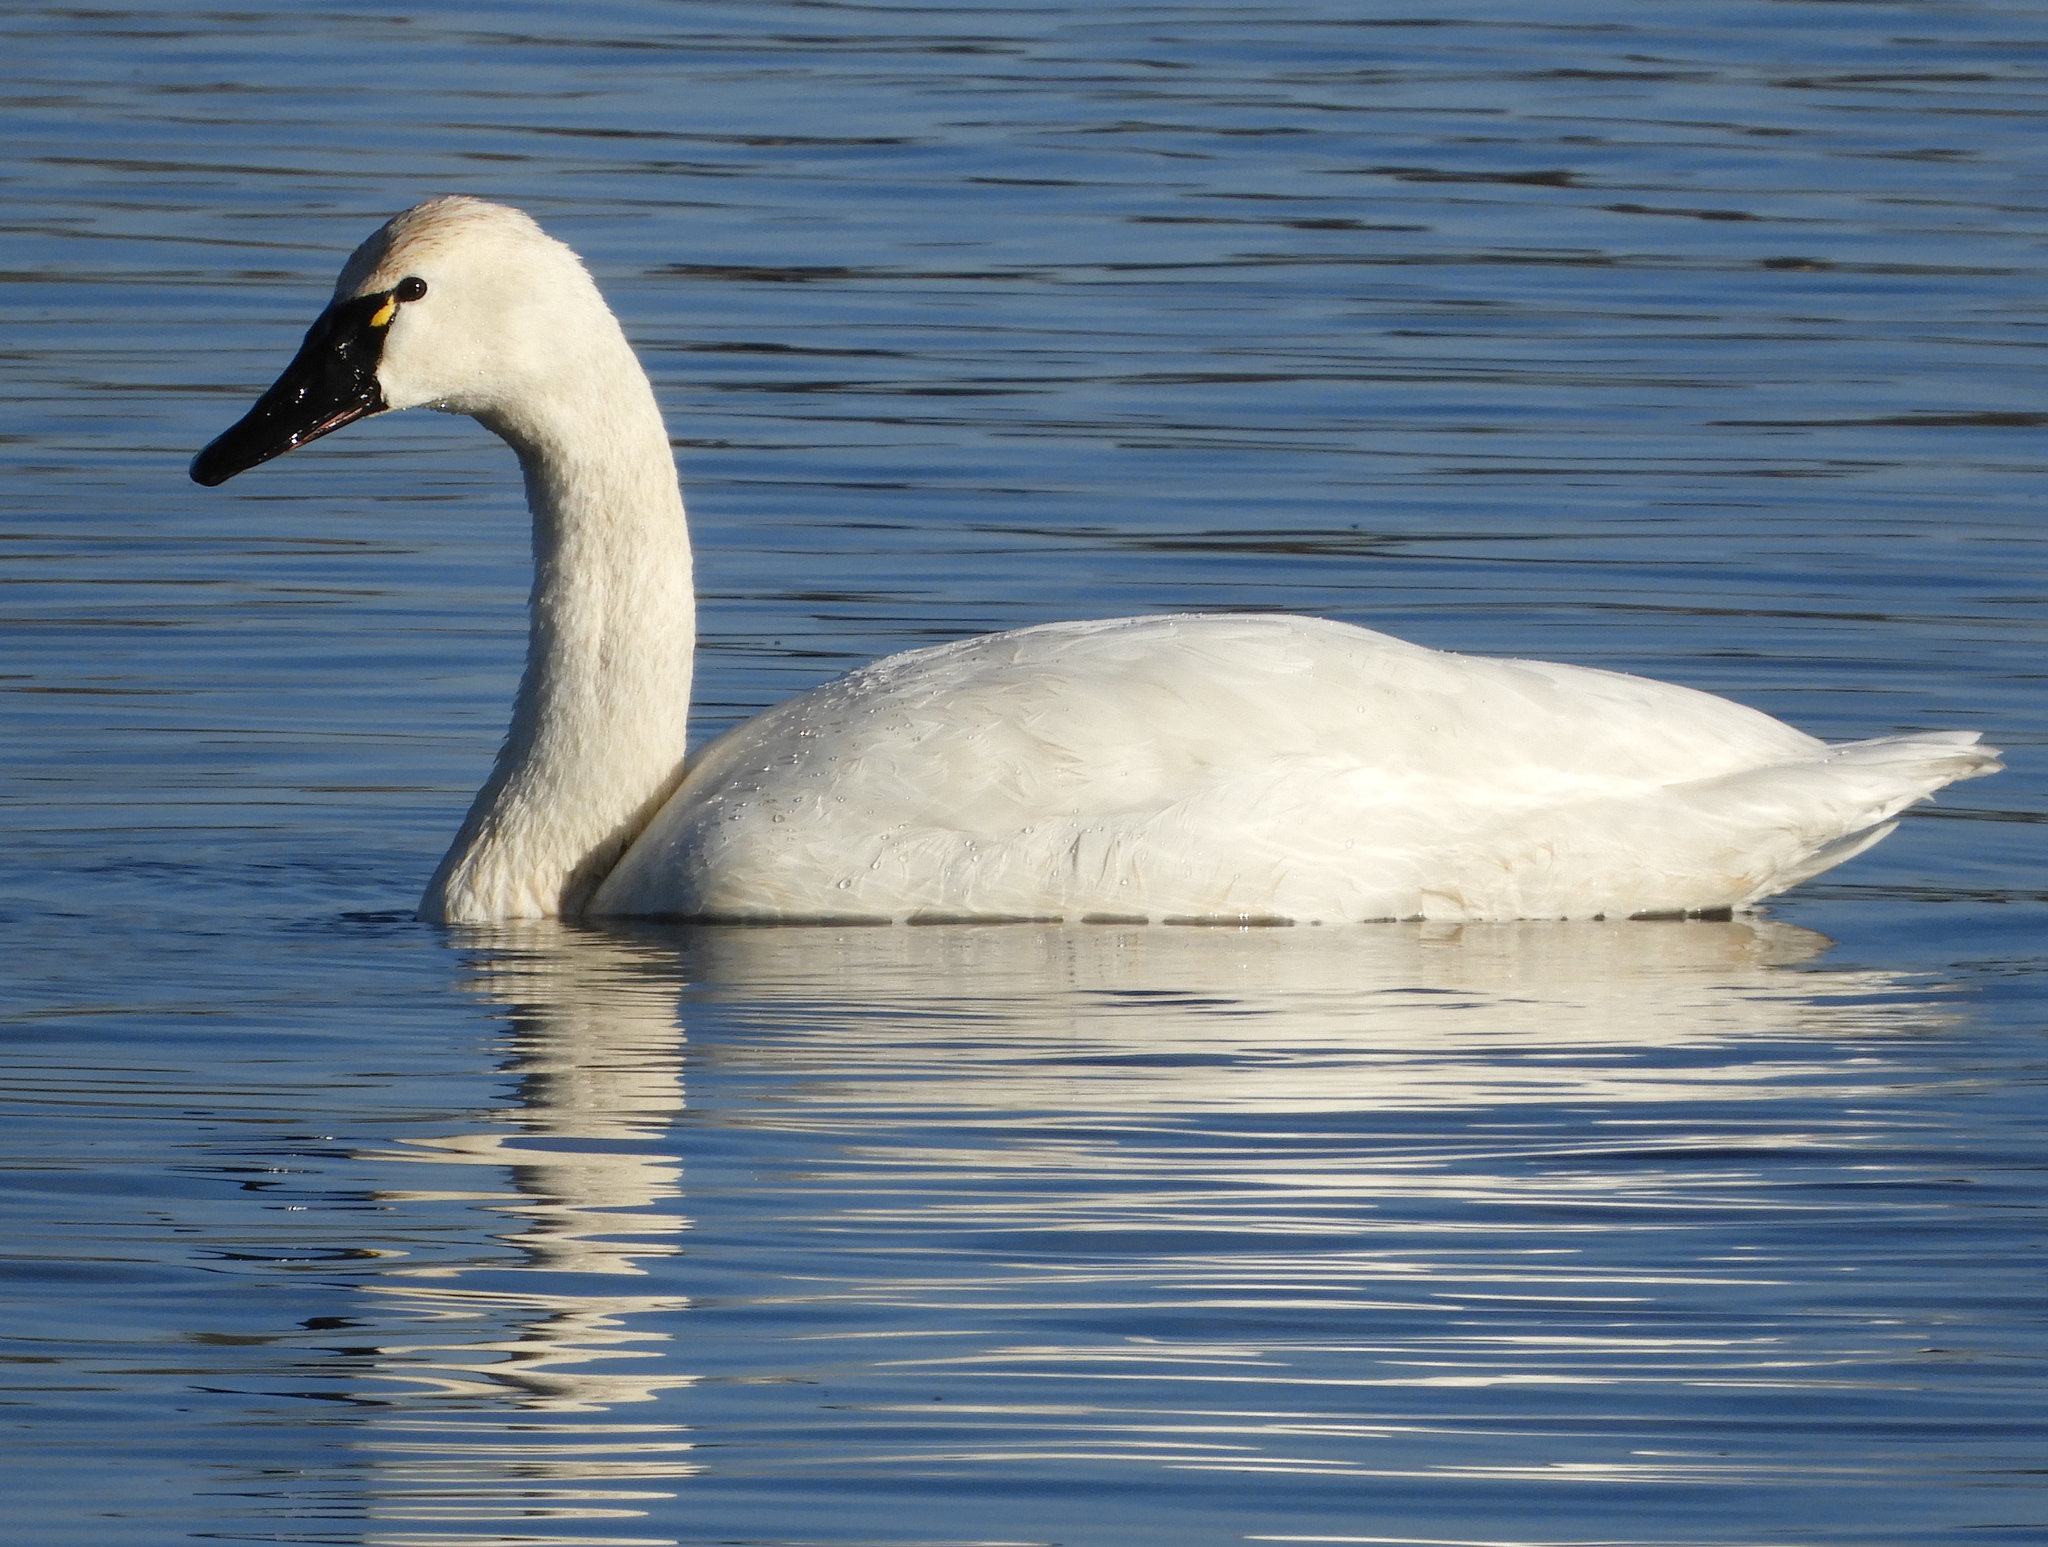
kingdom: Animalia
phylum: Chordata
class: Aves
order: Anseriformes
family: Anatidae
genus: Cygnus
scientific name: Cygnus columbianus
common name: Tundra swan
